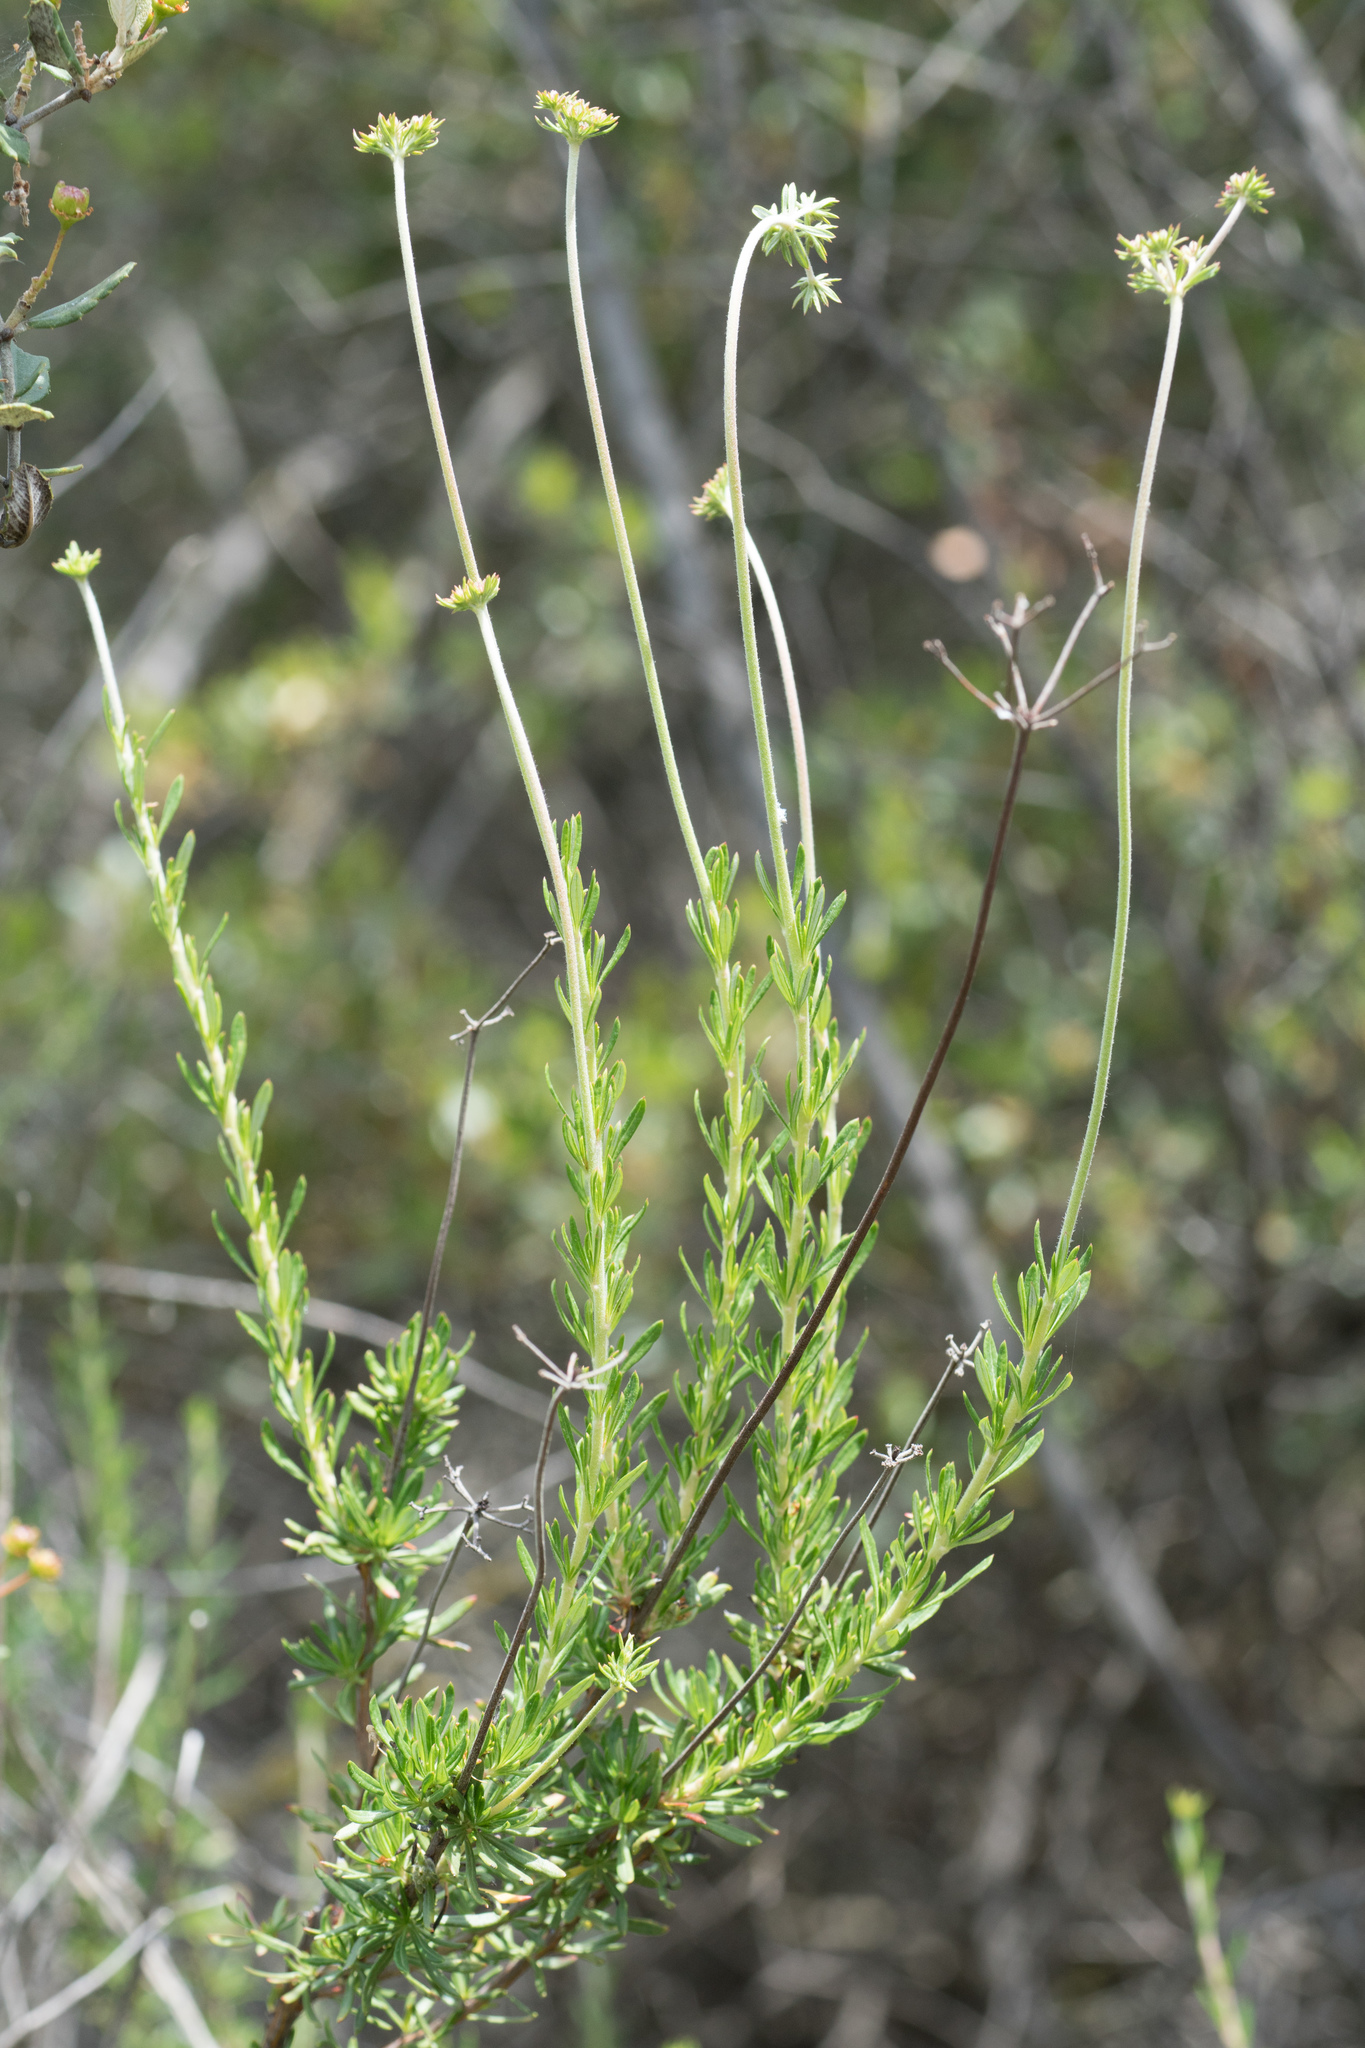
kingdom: Plantae
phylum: Tracheophyta
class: Magnoliopsida
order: Caryophyllales
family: Polygonaceae
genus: Eriogonum
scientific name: Eriogonum fasciculatum
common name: California wild buckwheat
